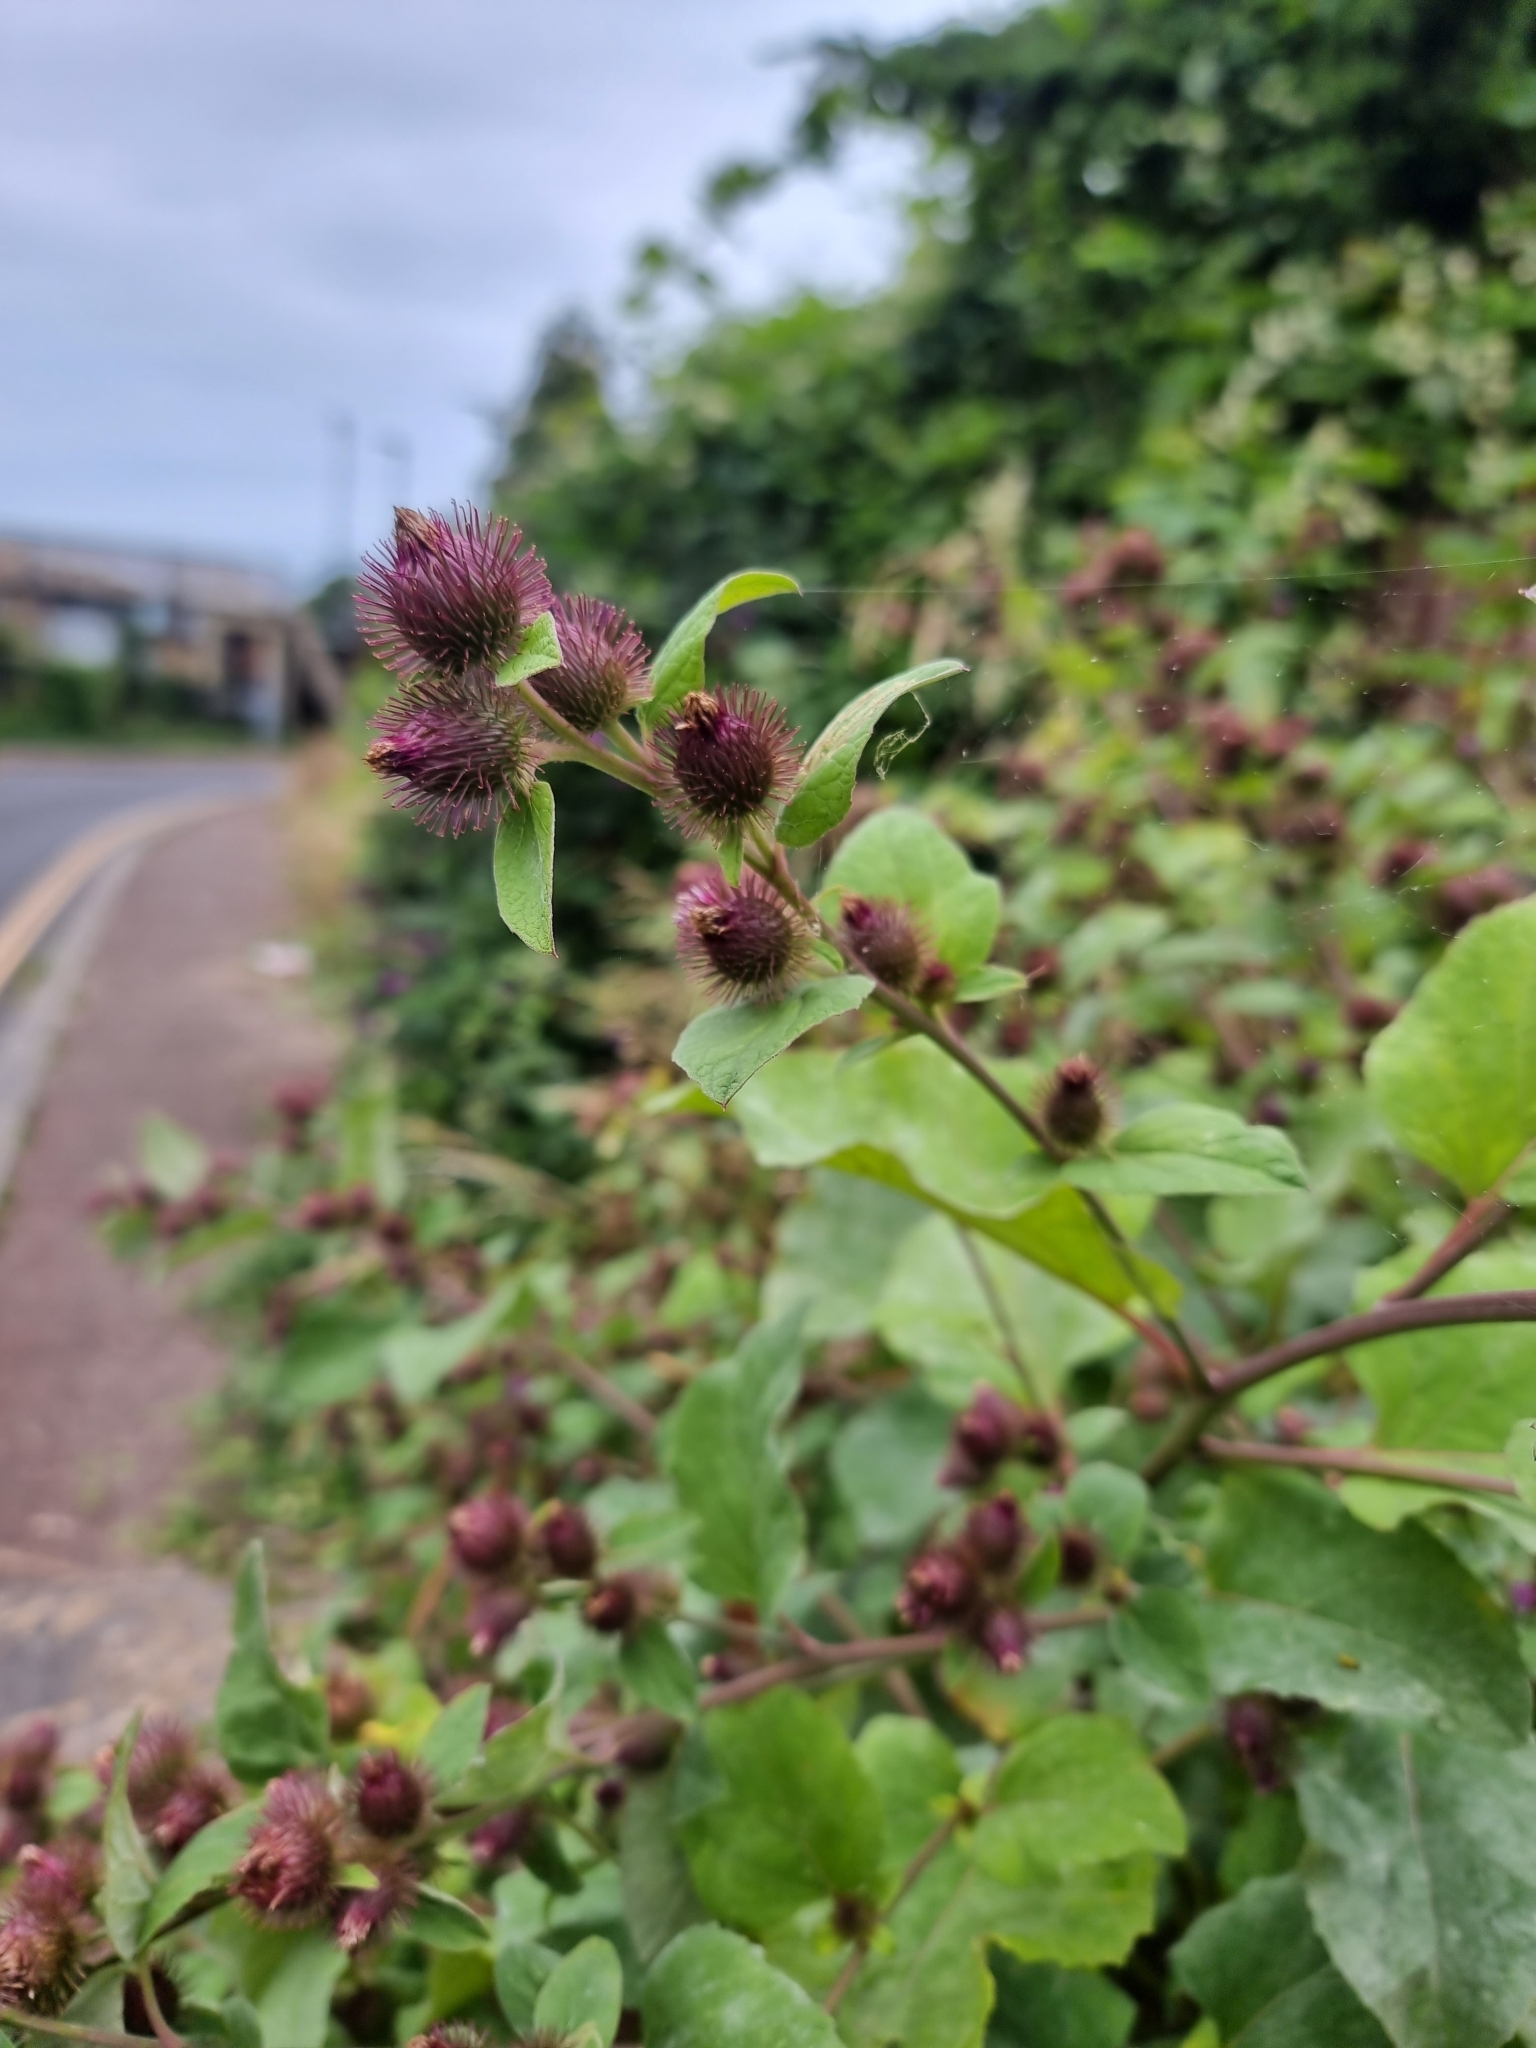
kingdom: Plantae
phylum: Tracheophyta
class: Magnoliopsida
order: Asterales
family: Asteraceae
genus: Arctium
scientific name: Arctium minus
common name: Lesser burdock
